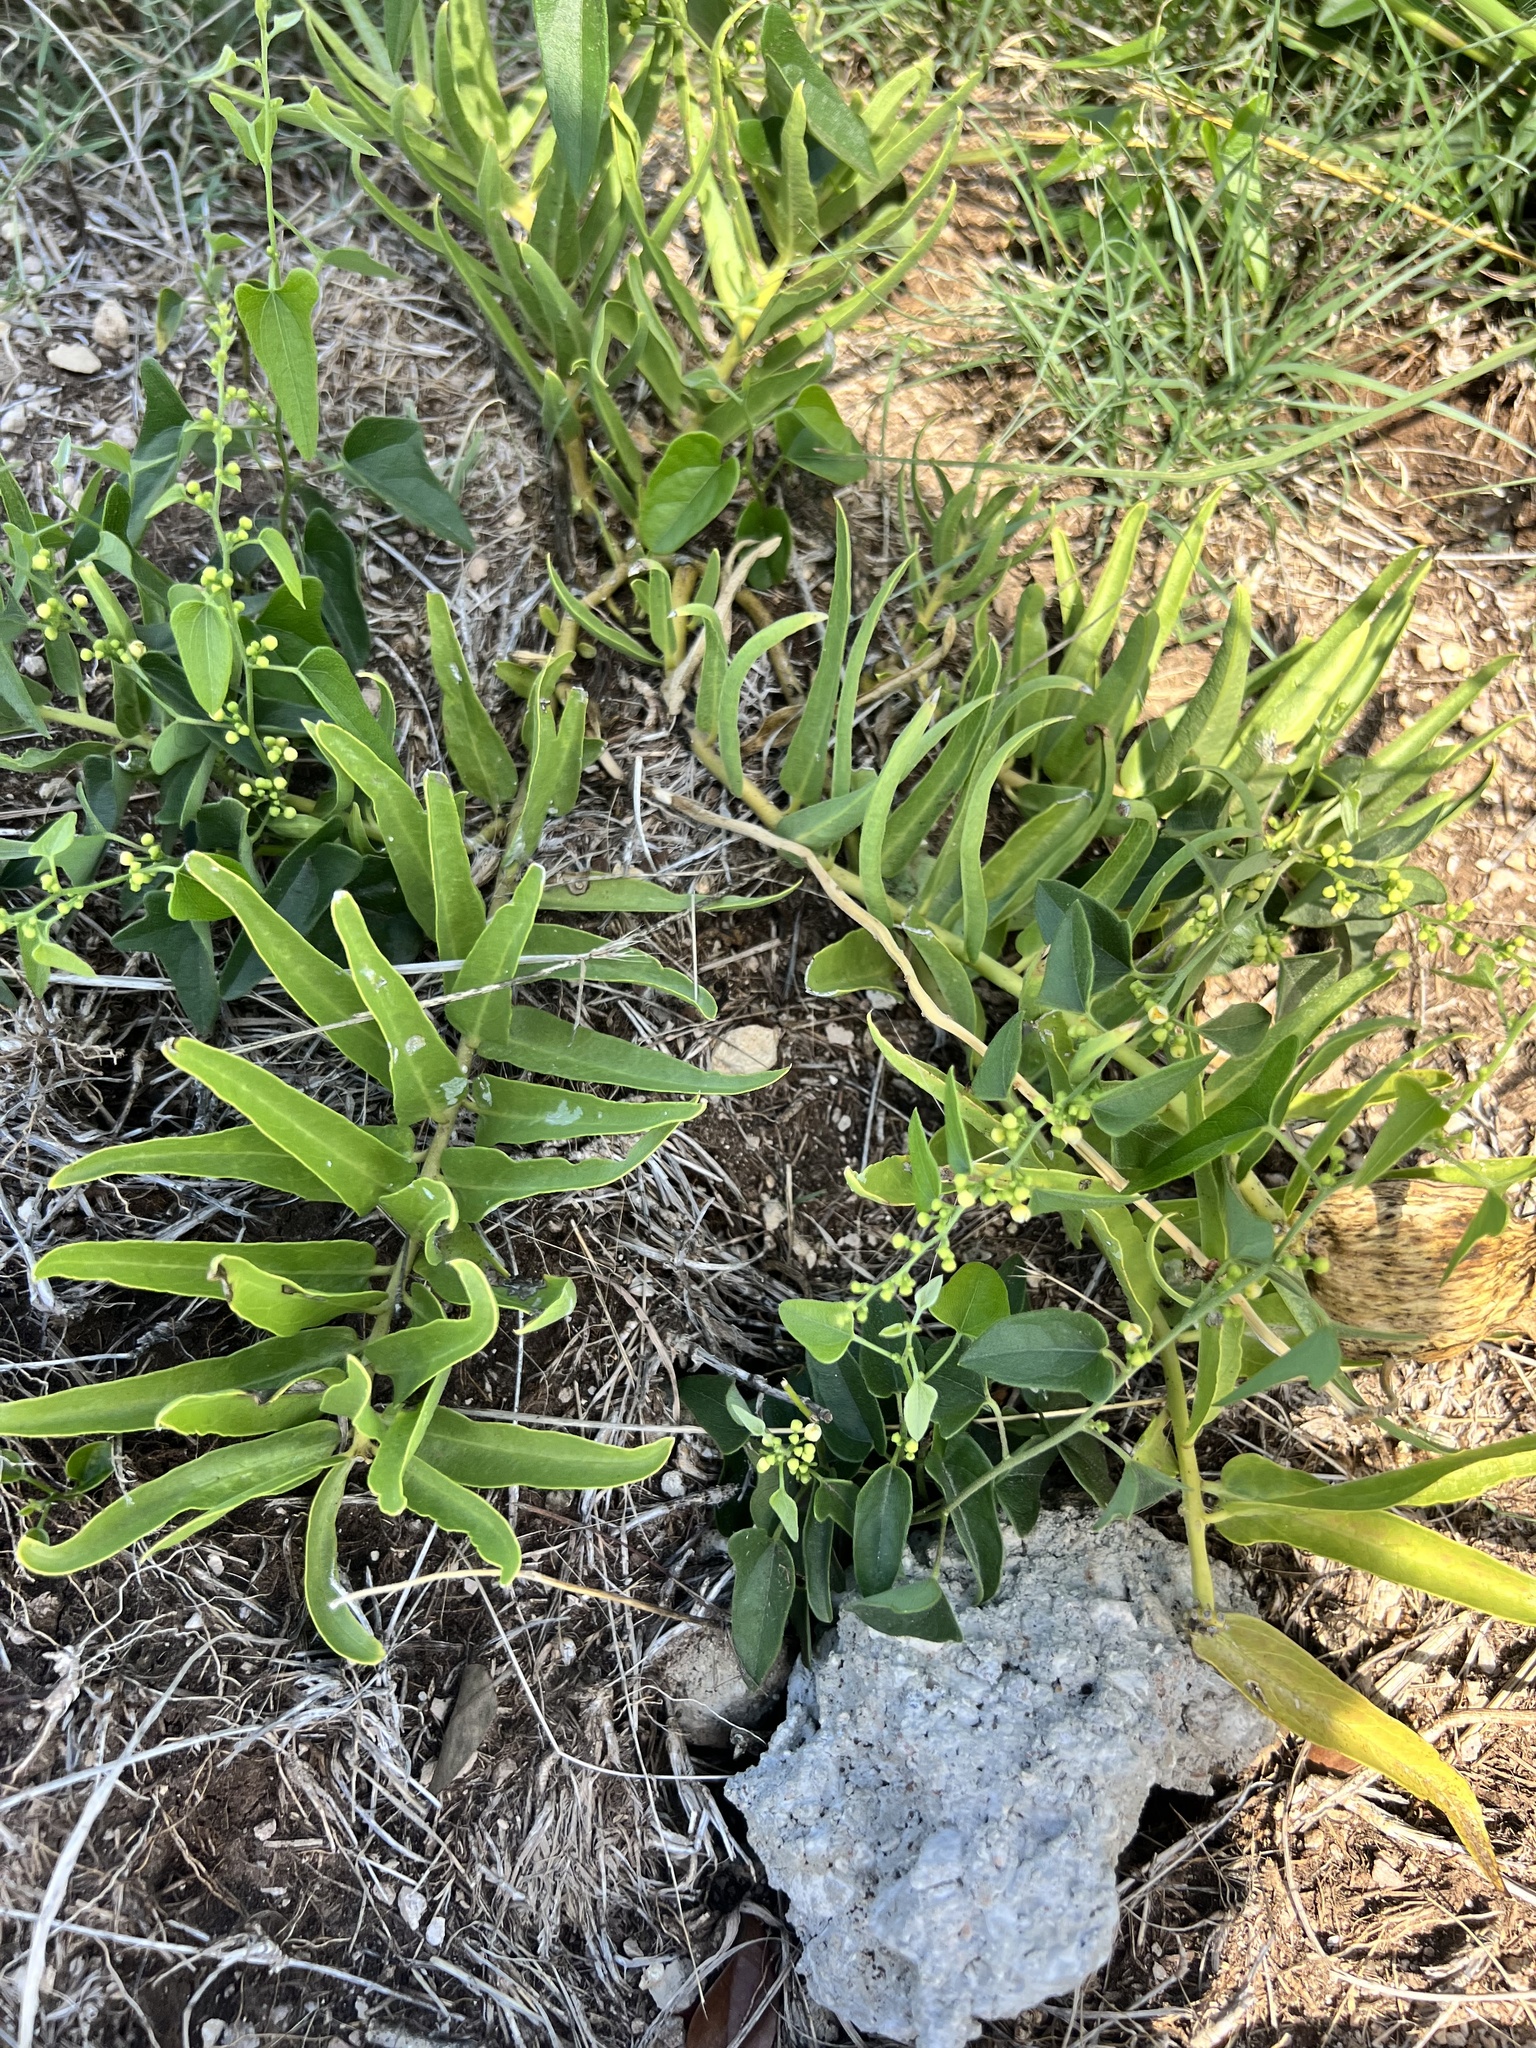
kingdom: Plantae
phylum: Tracheophyta
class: Magnoliopsida
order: Gentianales
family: Apocynaceae
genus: Asclepias
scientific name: Asclepias asperula
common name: Antelope horns
